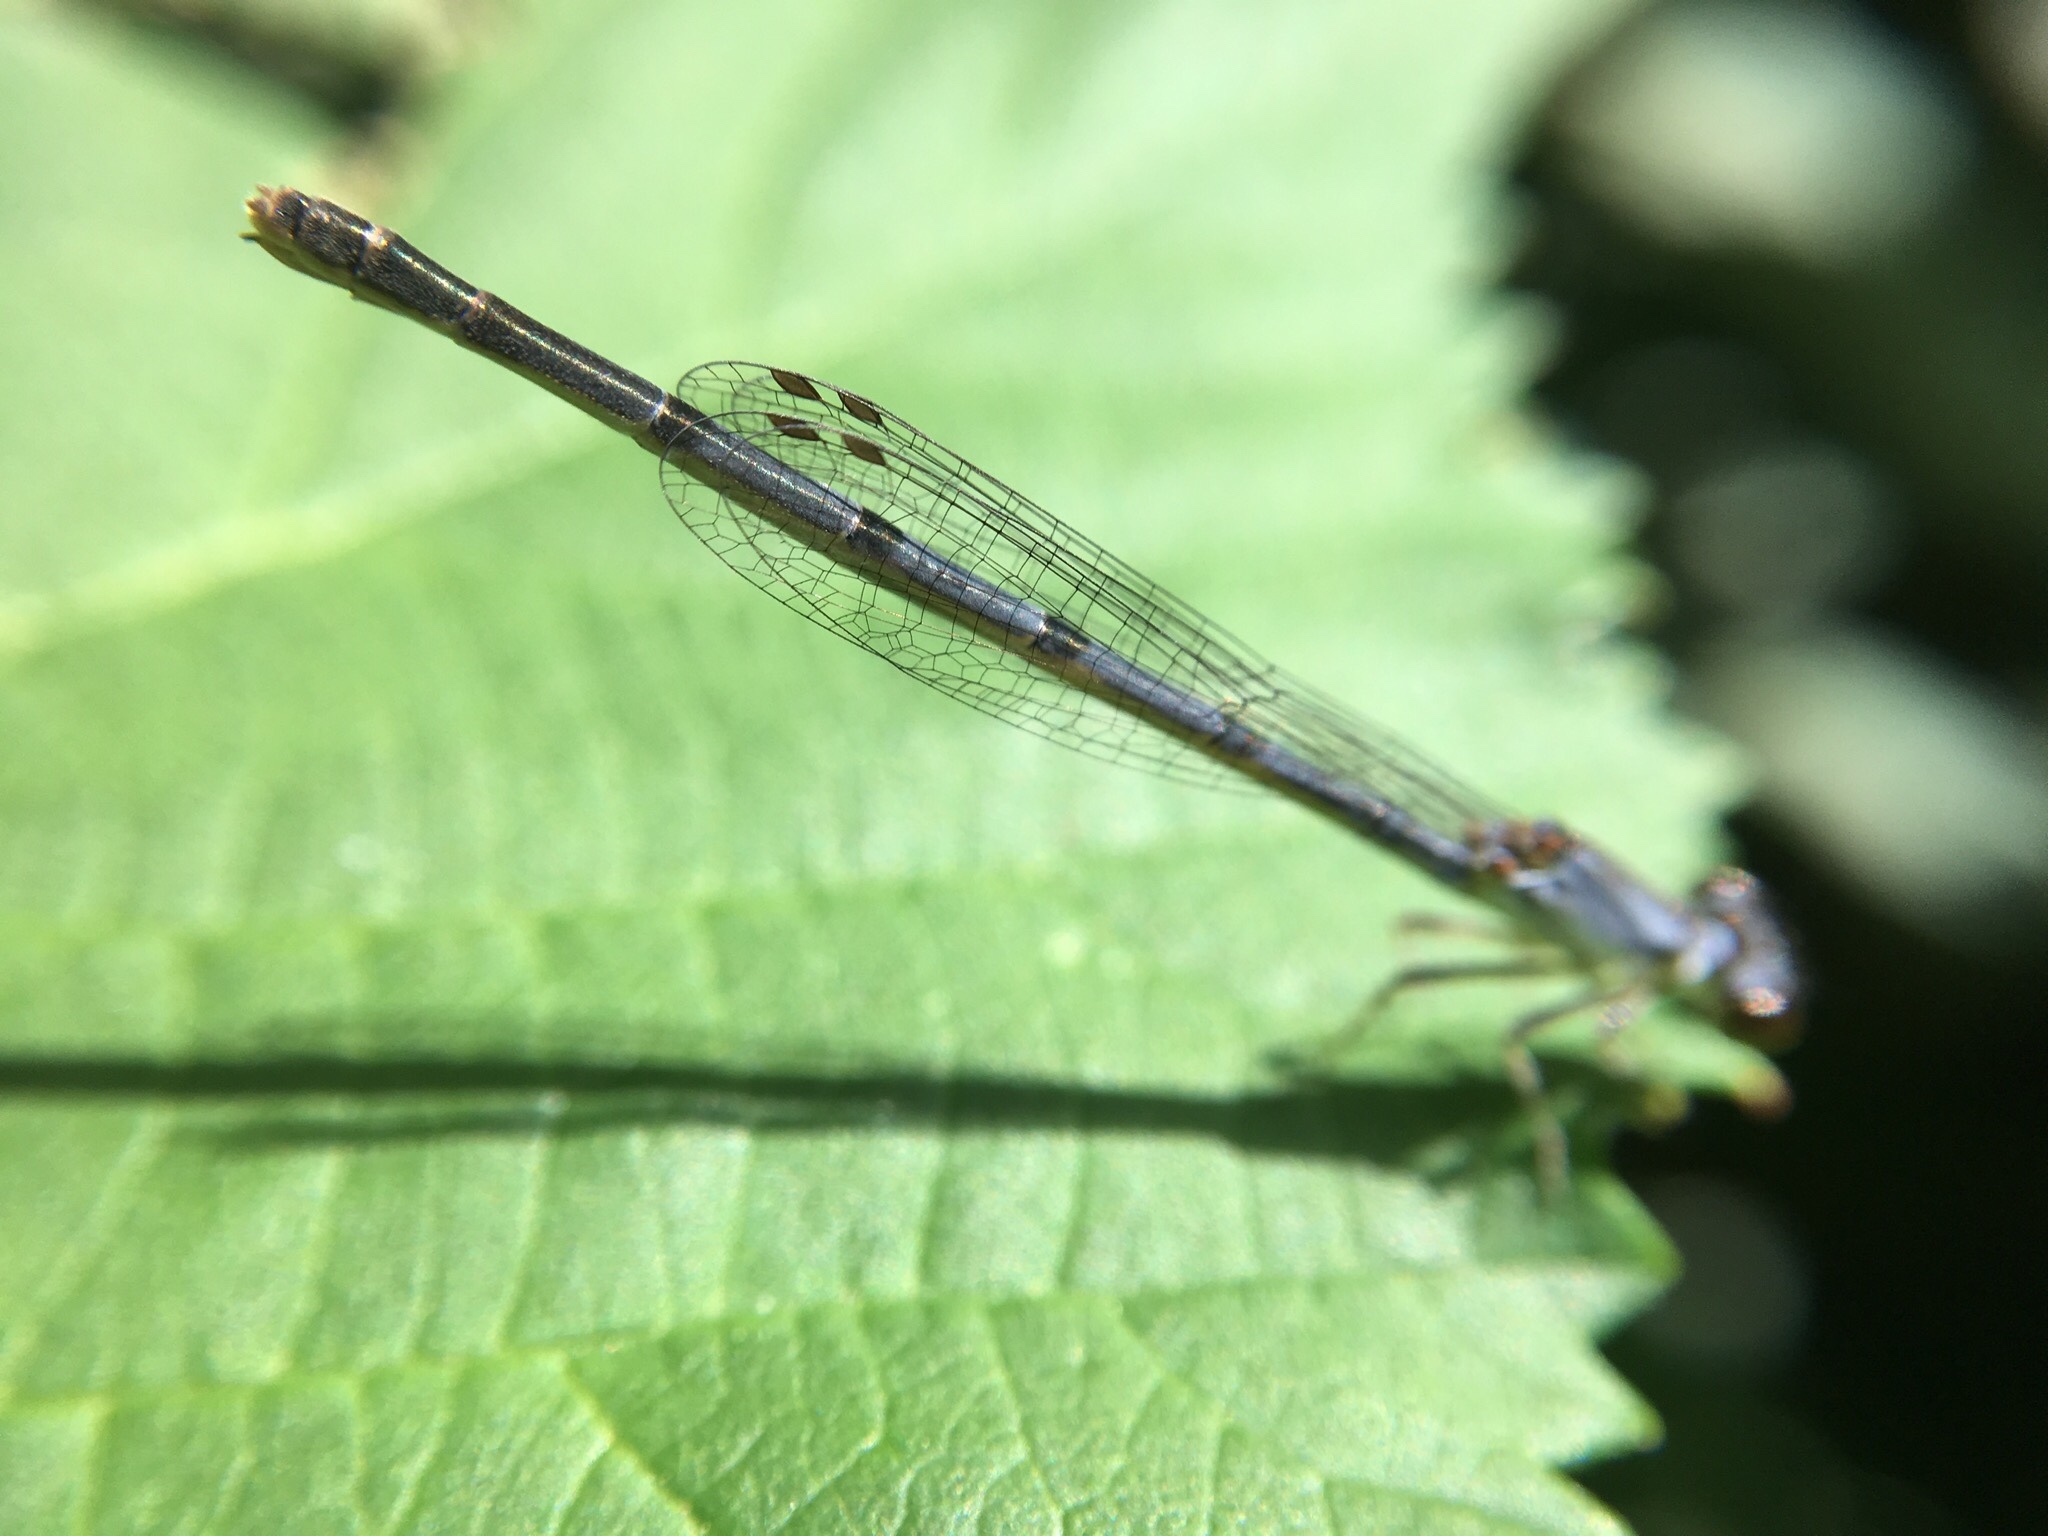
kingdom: Animalia
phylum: Arthropoda
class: Insecta
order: Odonata
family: Coenagrionidae
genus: Ischnura
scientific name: Ischnura posita
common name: Fragile forktail
